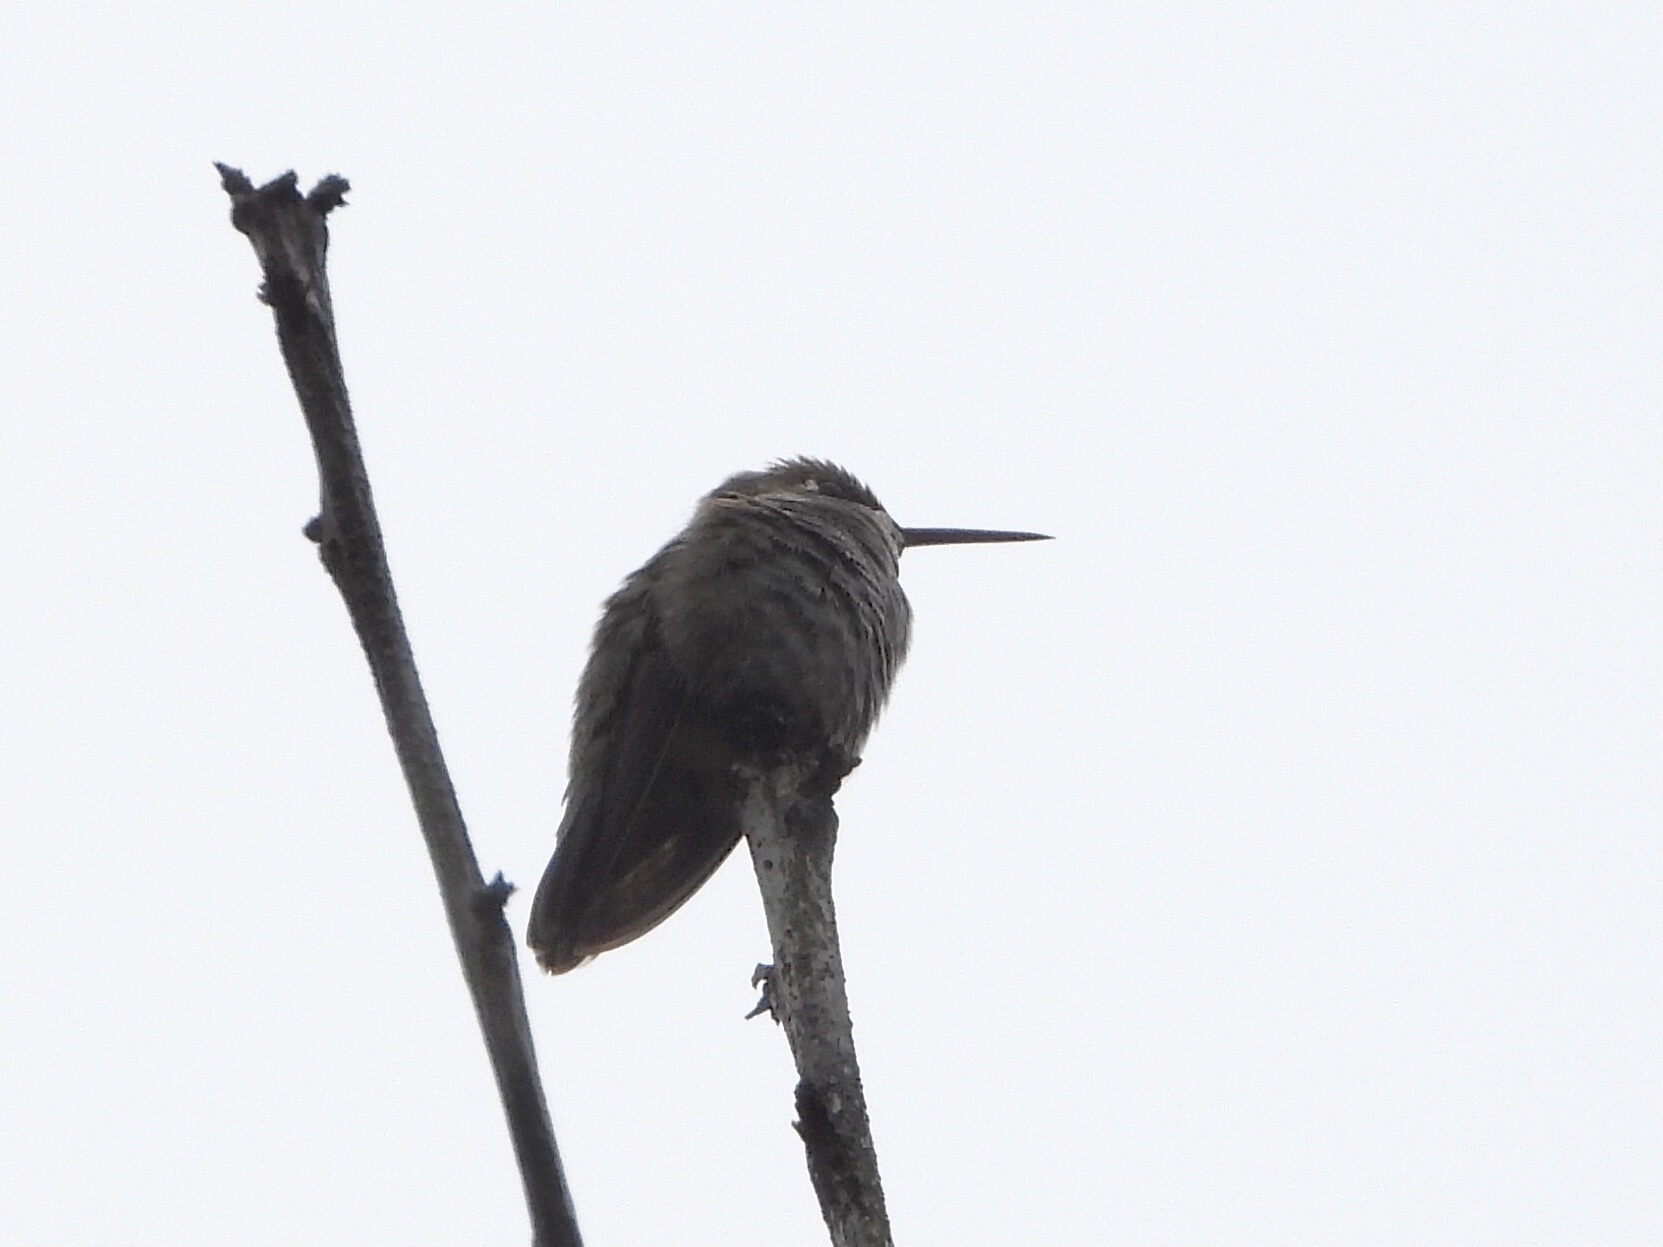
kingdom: Animalia
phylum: Chordata
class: Aves
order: Apodiformes
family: Trochilidae
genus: Calypte
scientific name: Calypte anna
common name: Anna's hummingbird
